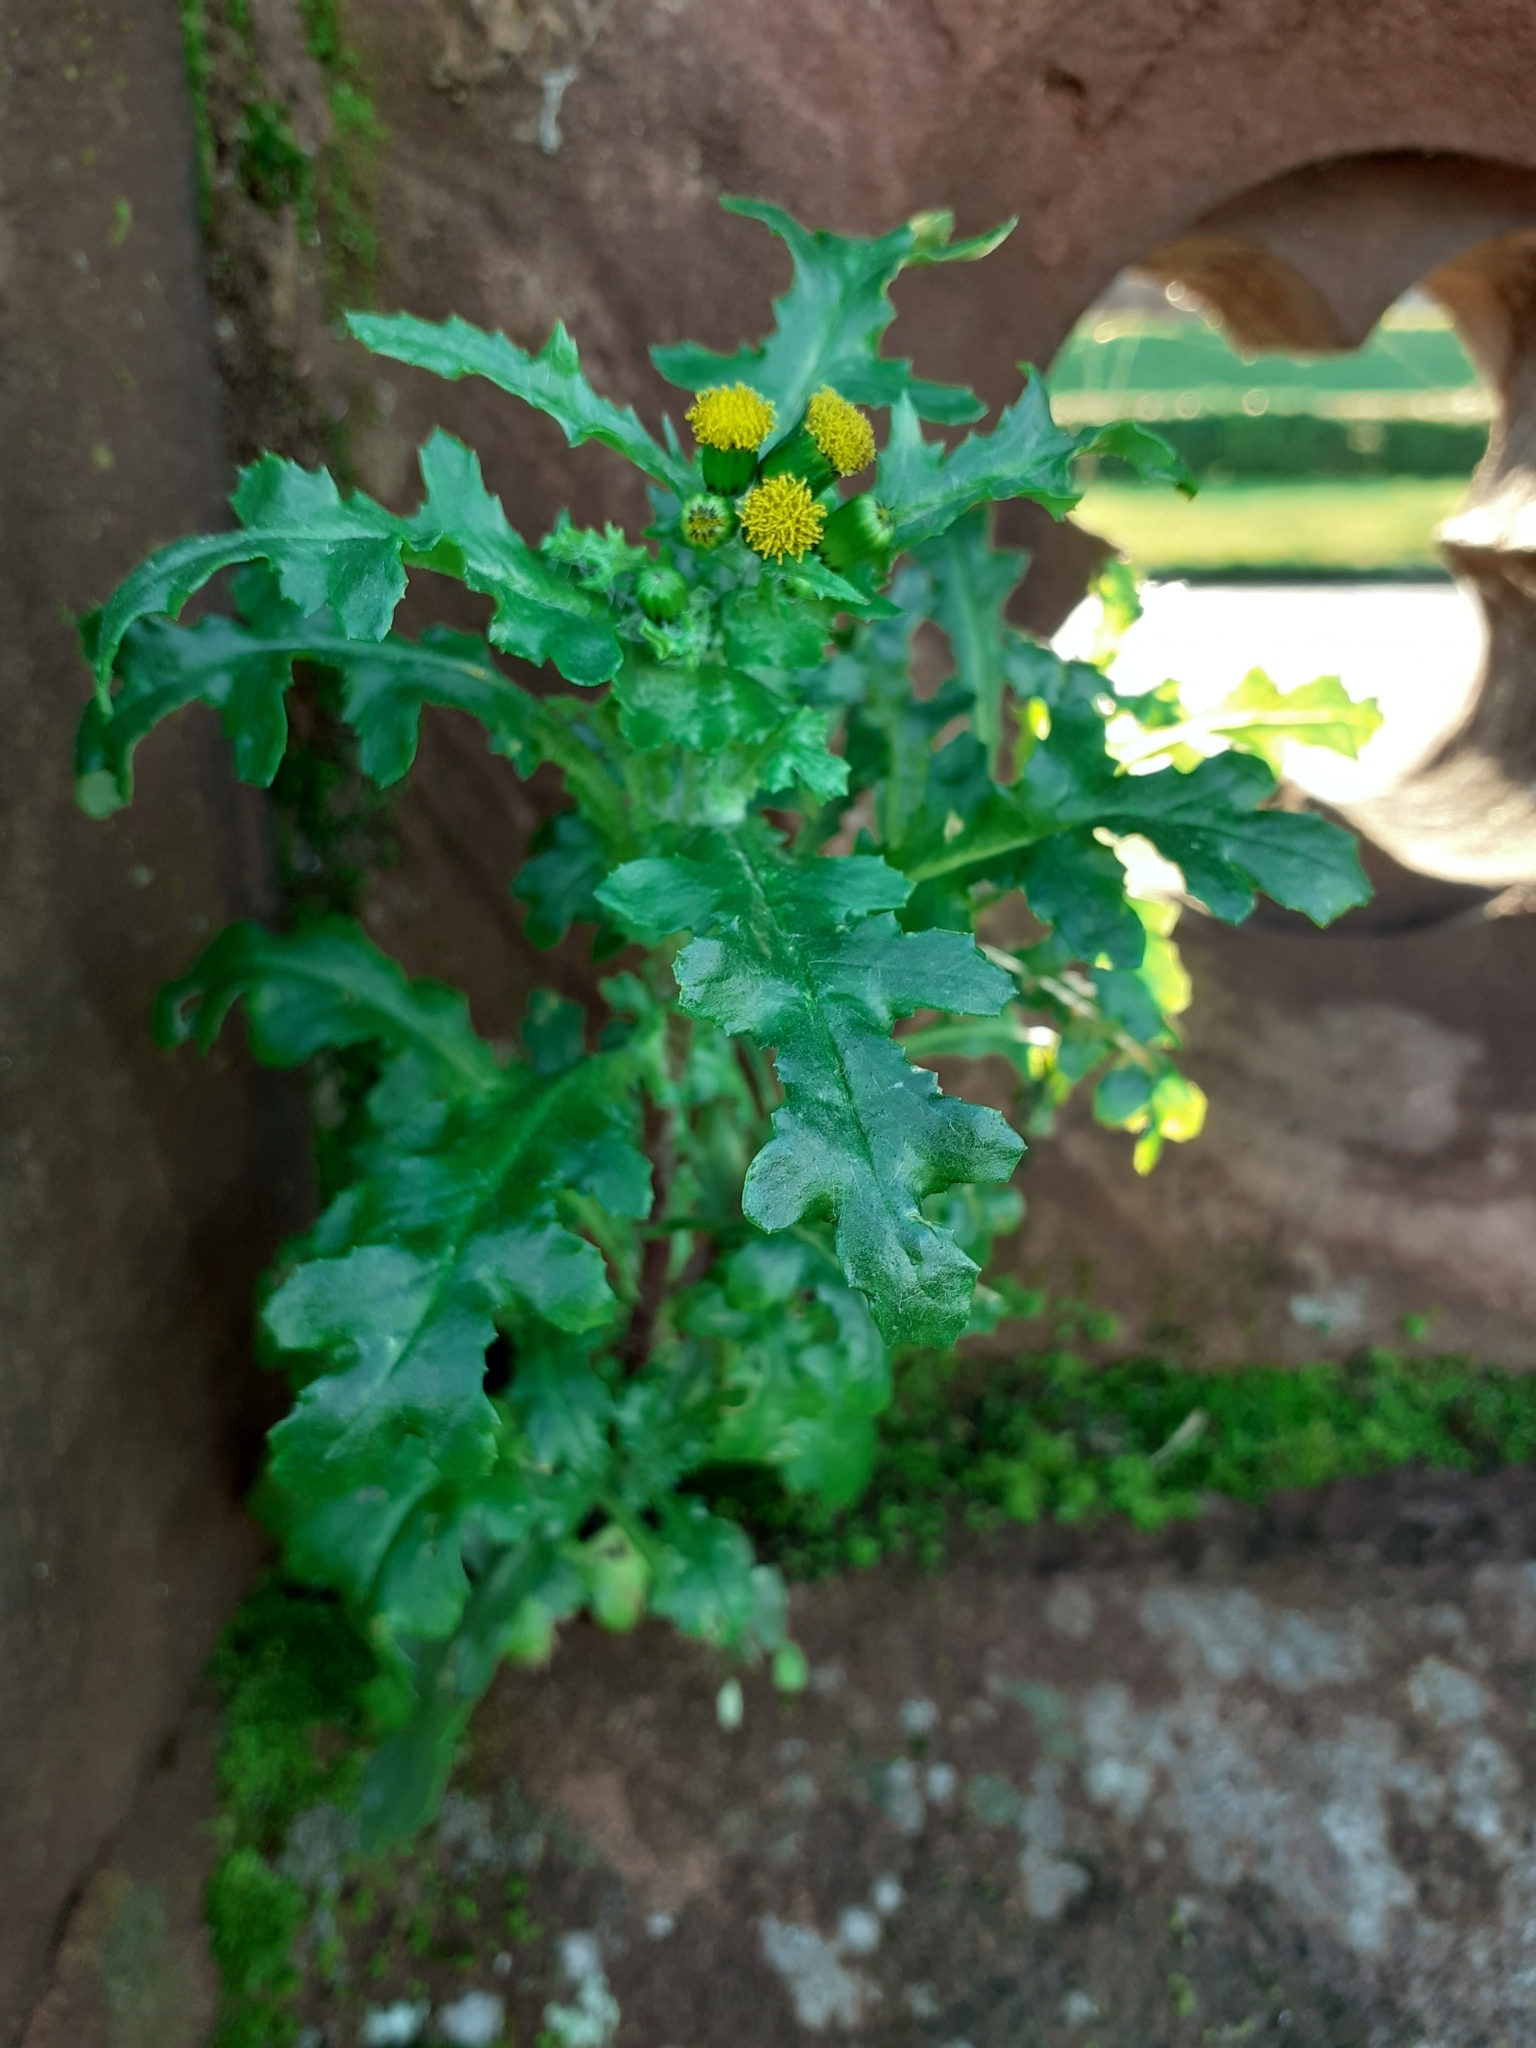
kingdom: Plantae
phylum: Tracheophyta
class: Magnoliopsida
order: Asterales
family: Asteraceae
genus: Senecio
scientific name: Senecio vulgaris
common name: Old-man-in-the-spring
